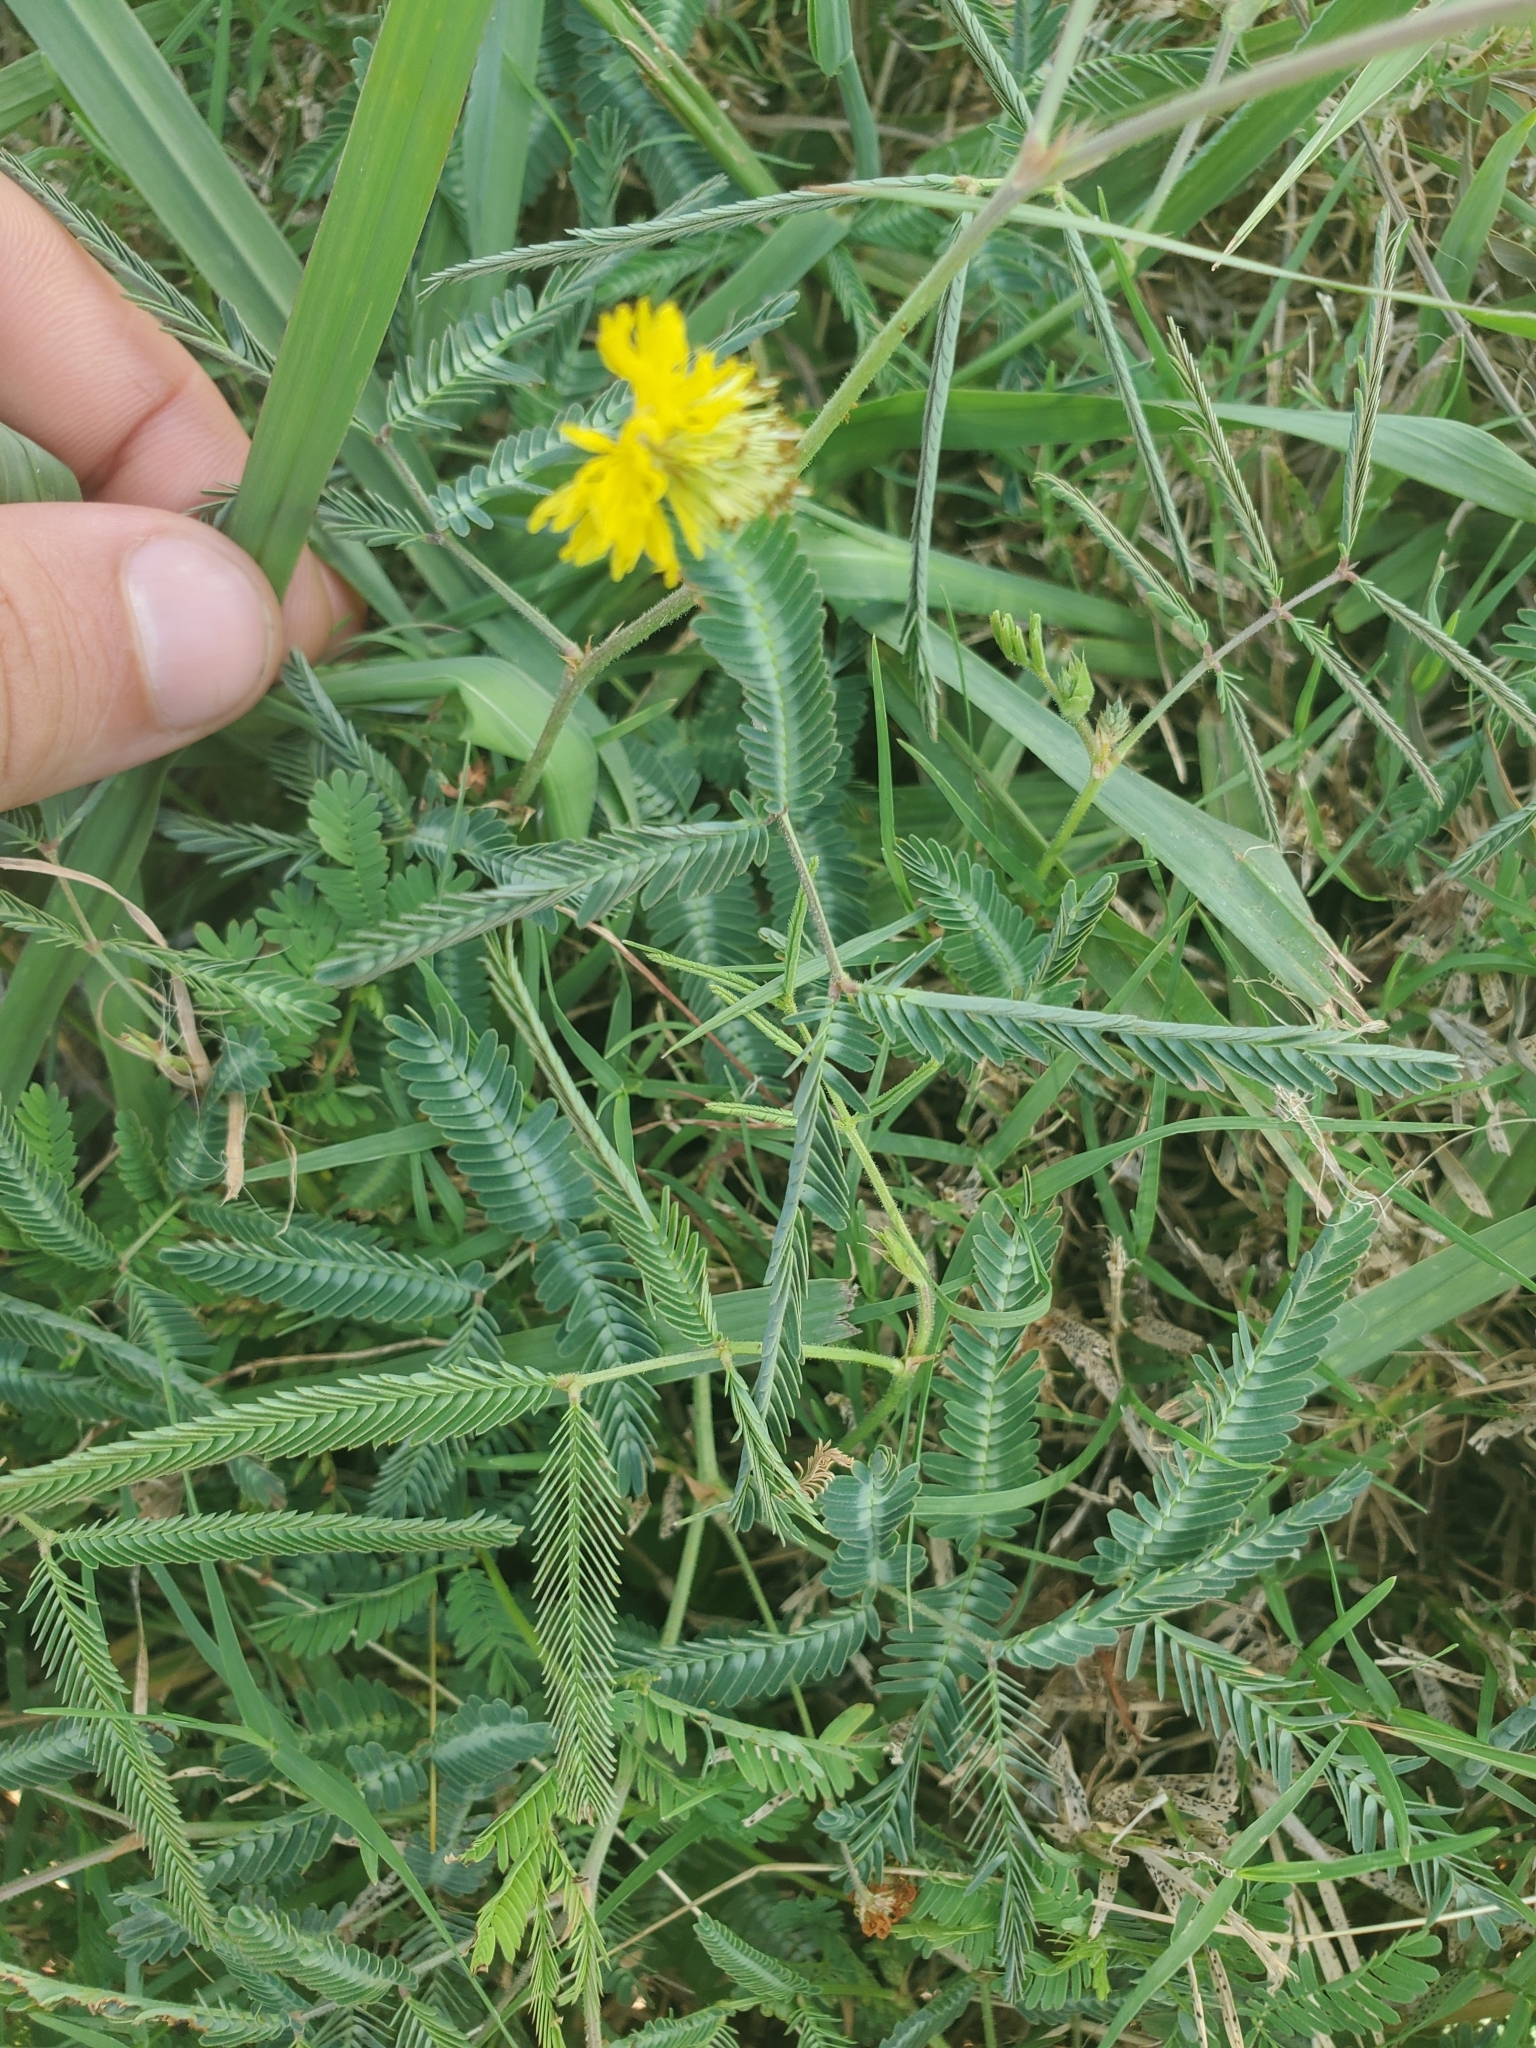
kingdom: Plantae
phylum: Tracheophyta
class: Magnoliopsida
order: Fabales
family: Fabaceae
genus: Neptunia
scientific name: Neptunia pubescens
